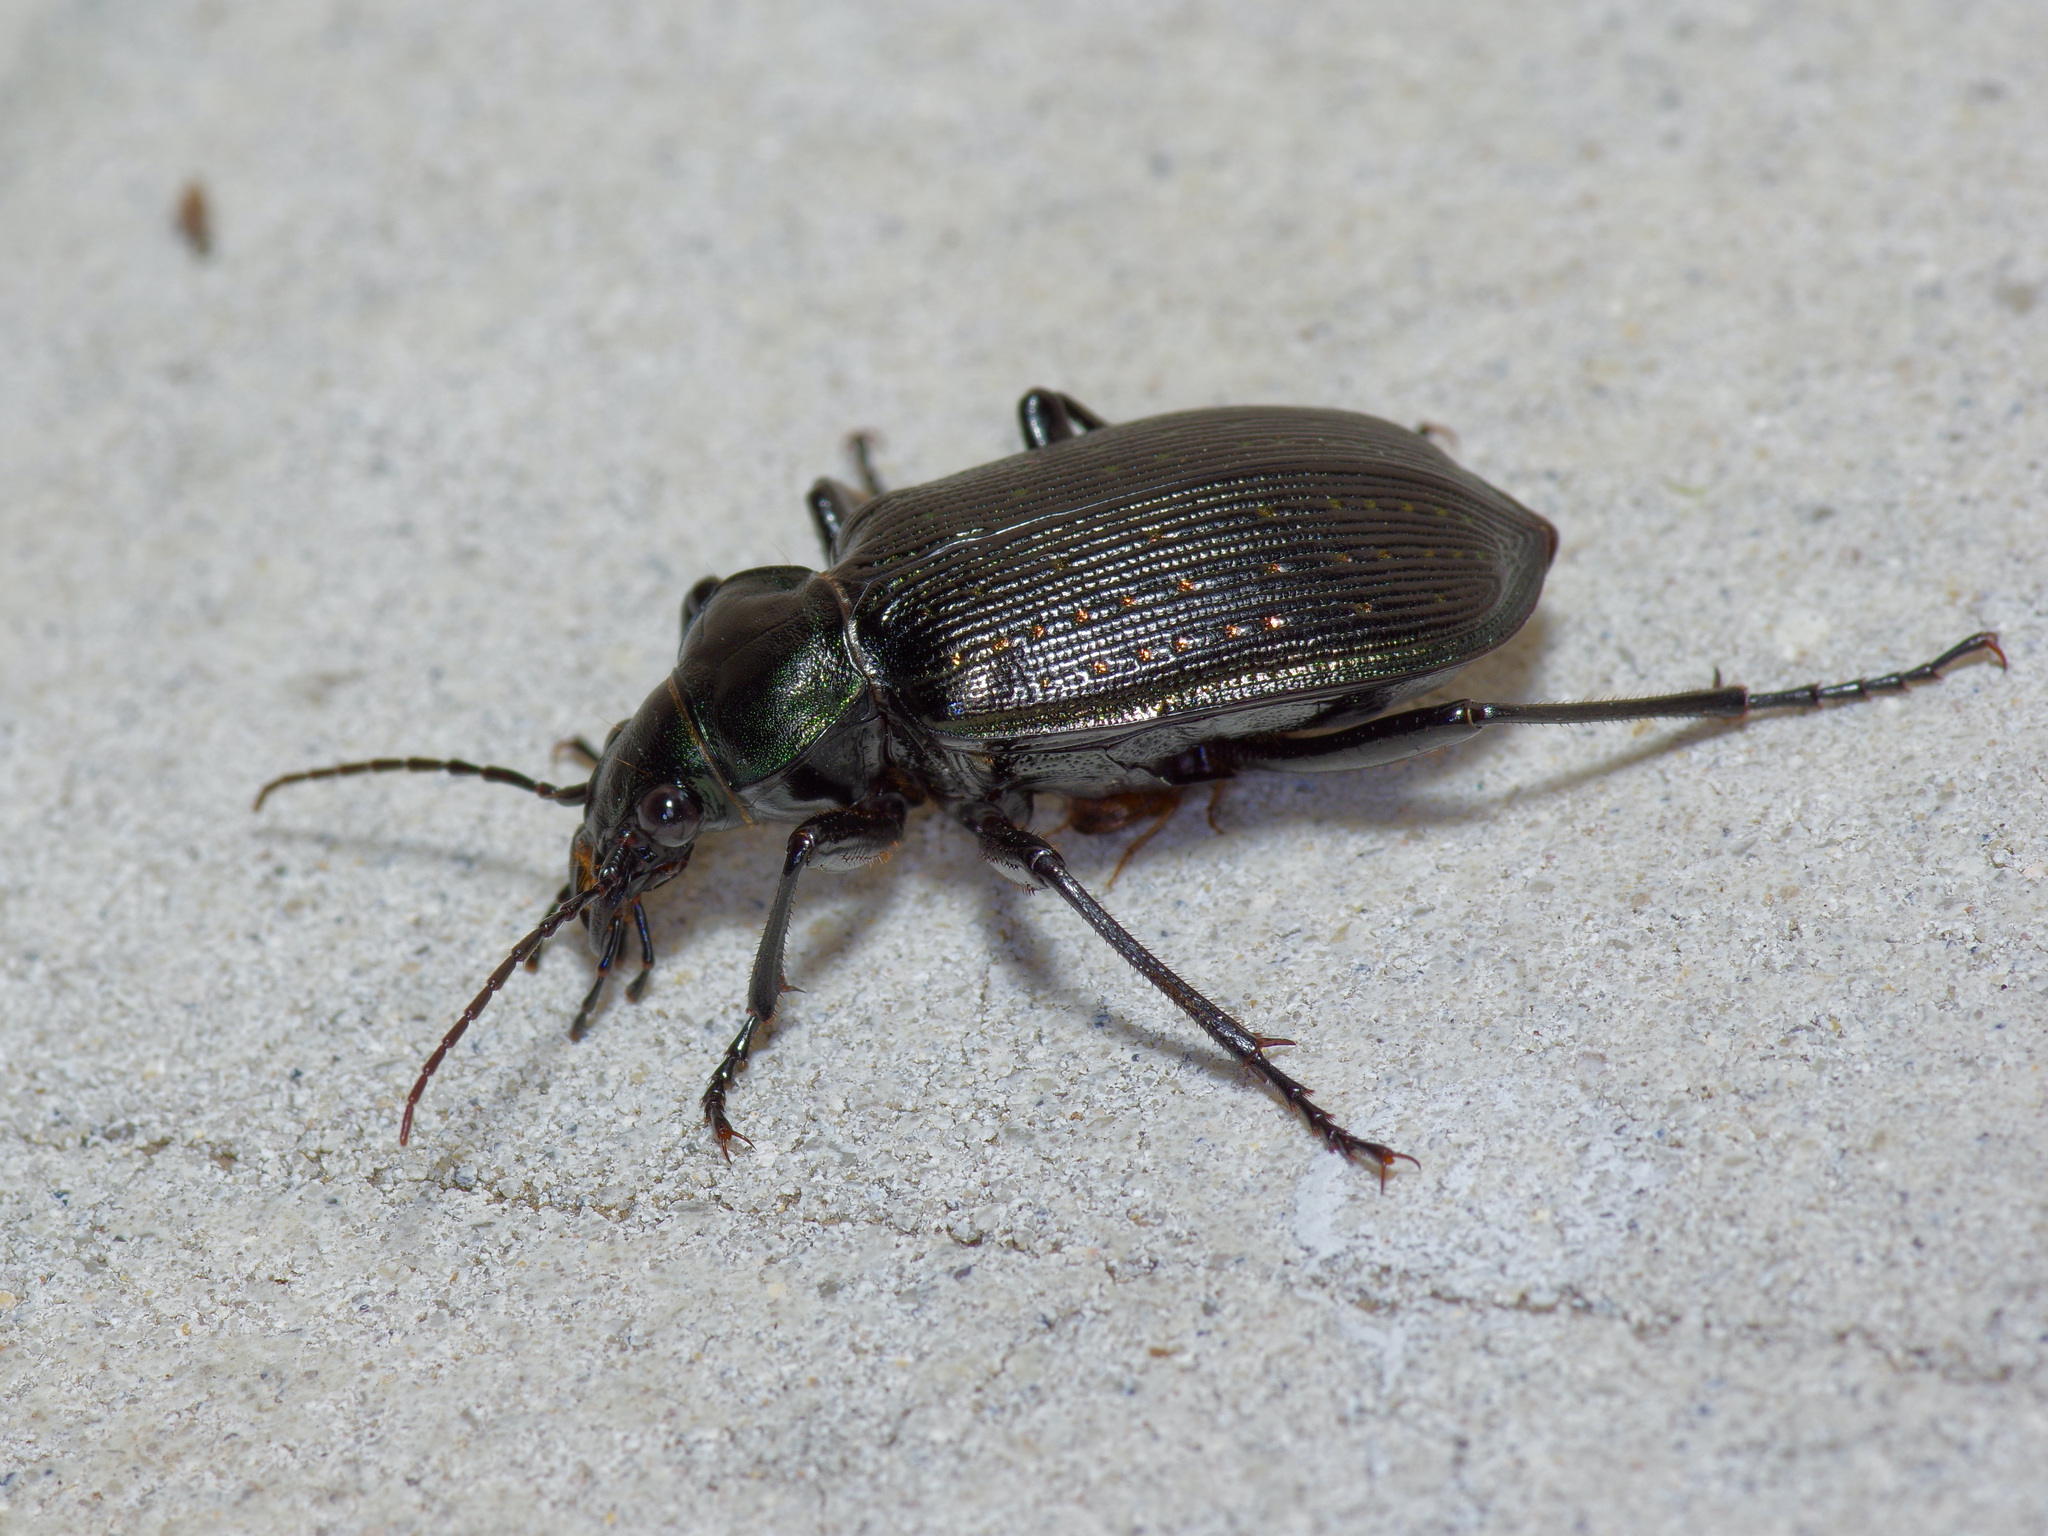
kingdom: Animalia
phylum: Arthropoda
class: Insecta
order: Coleoptera
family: Carabidae
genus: Calosoma
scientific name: Calosoma sayi
